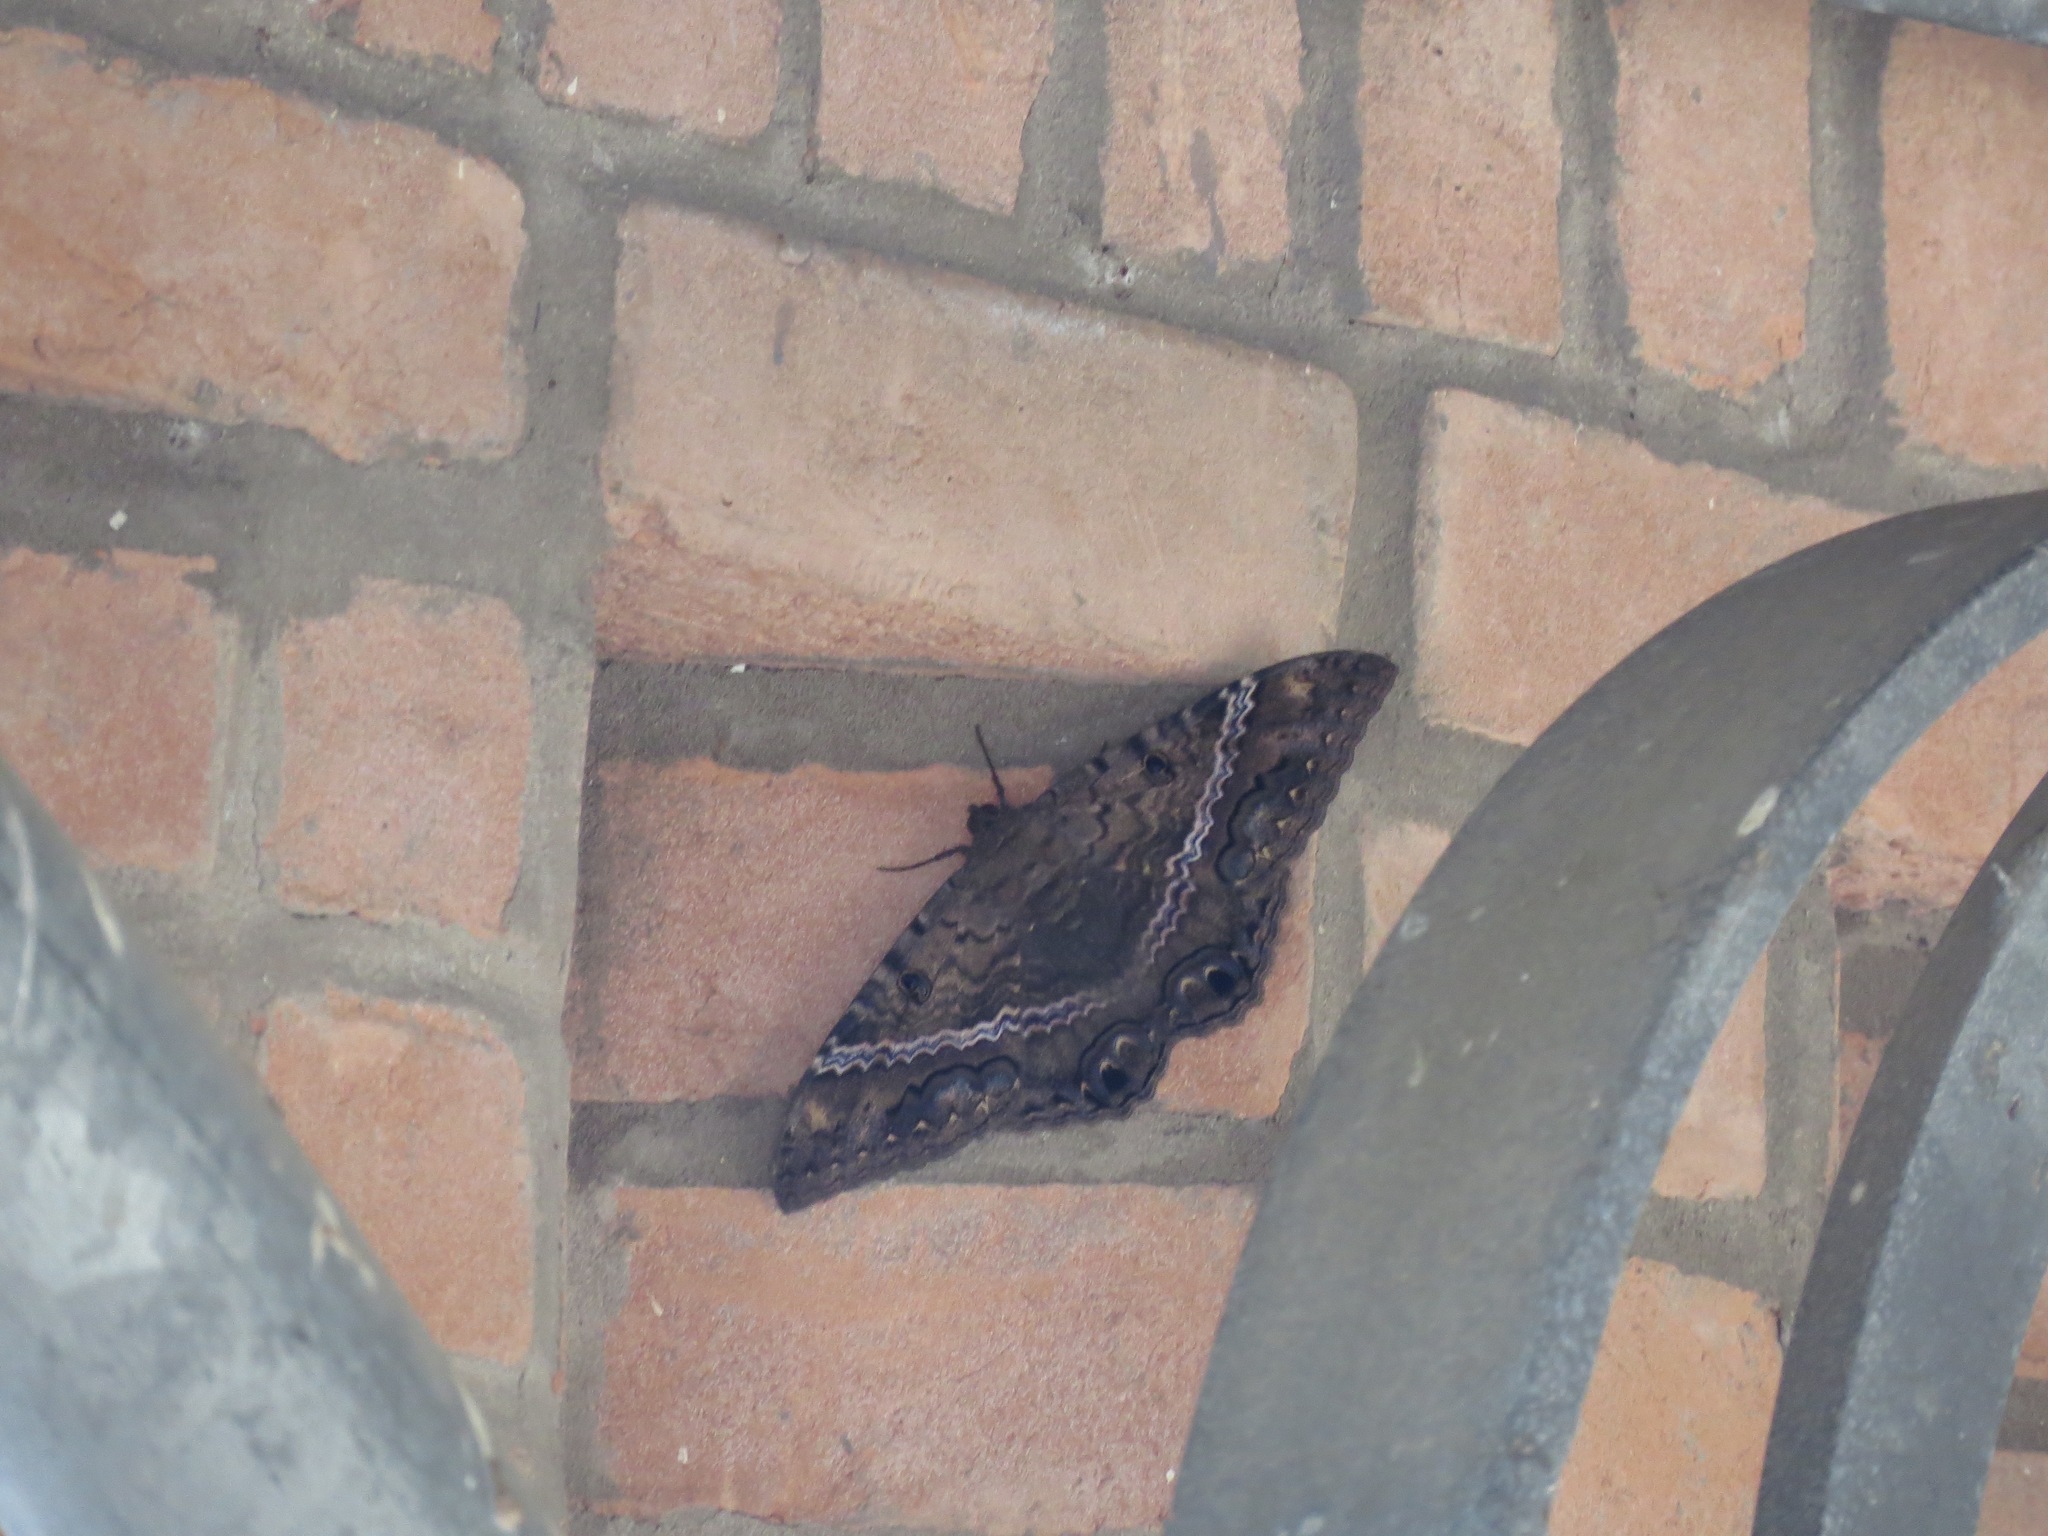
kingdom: Animalia
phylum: Arthropoda
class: Insecta
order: Lepidoptera
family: Erebidae
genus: Ascalapha
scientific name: Ascalapha odorata
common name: Black witch
